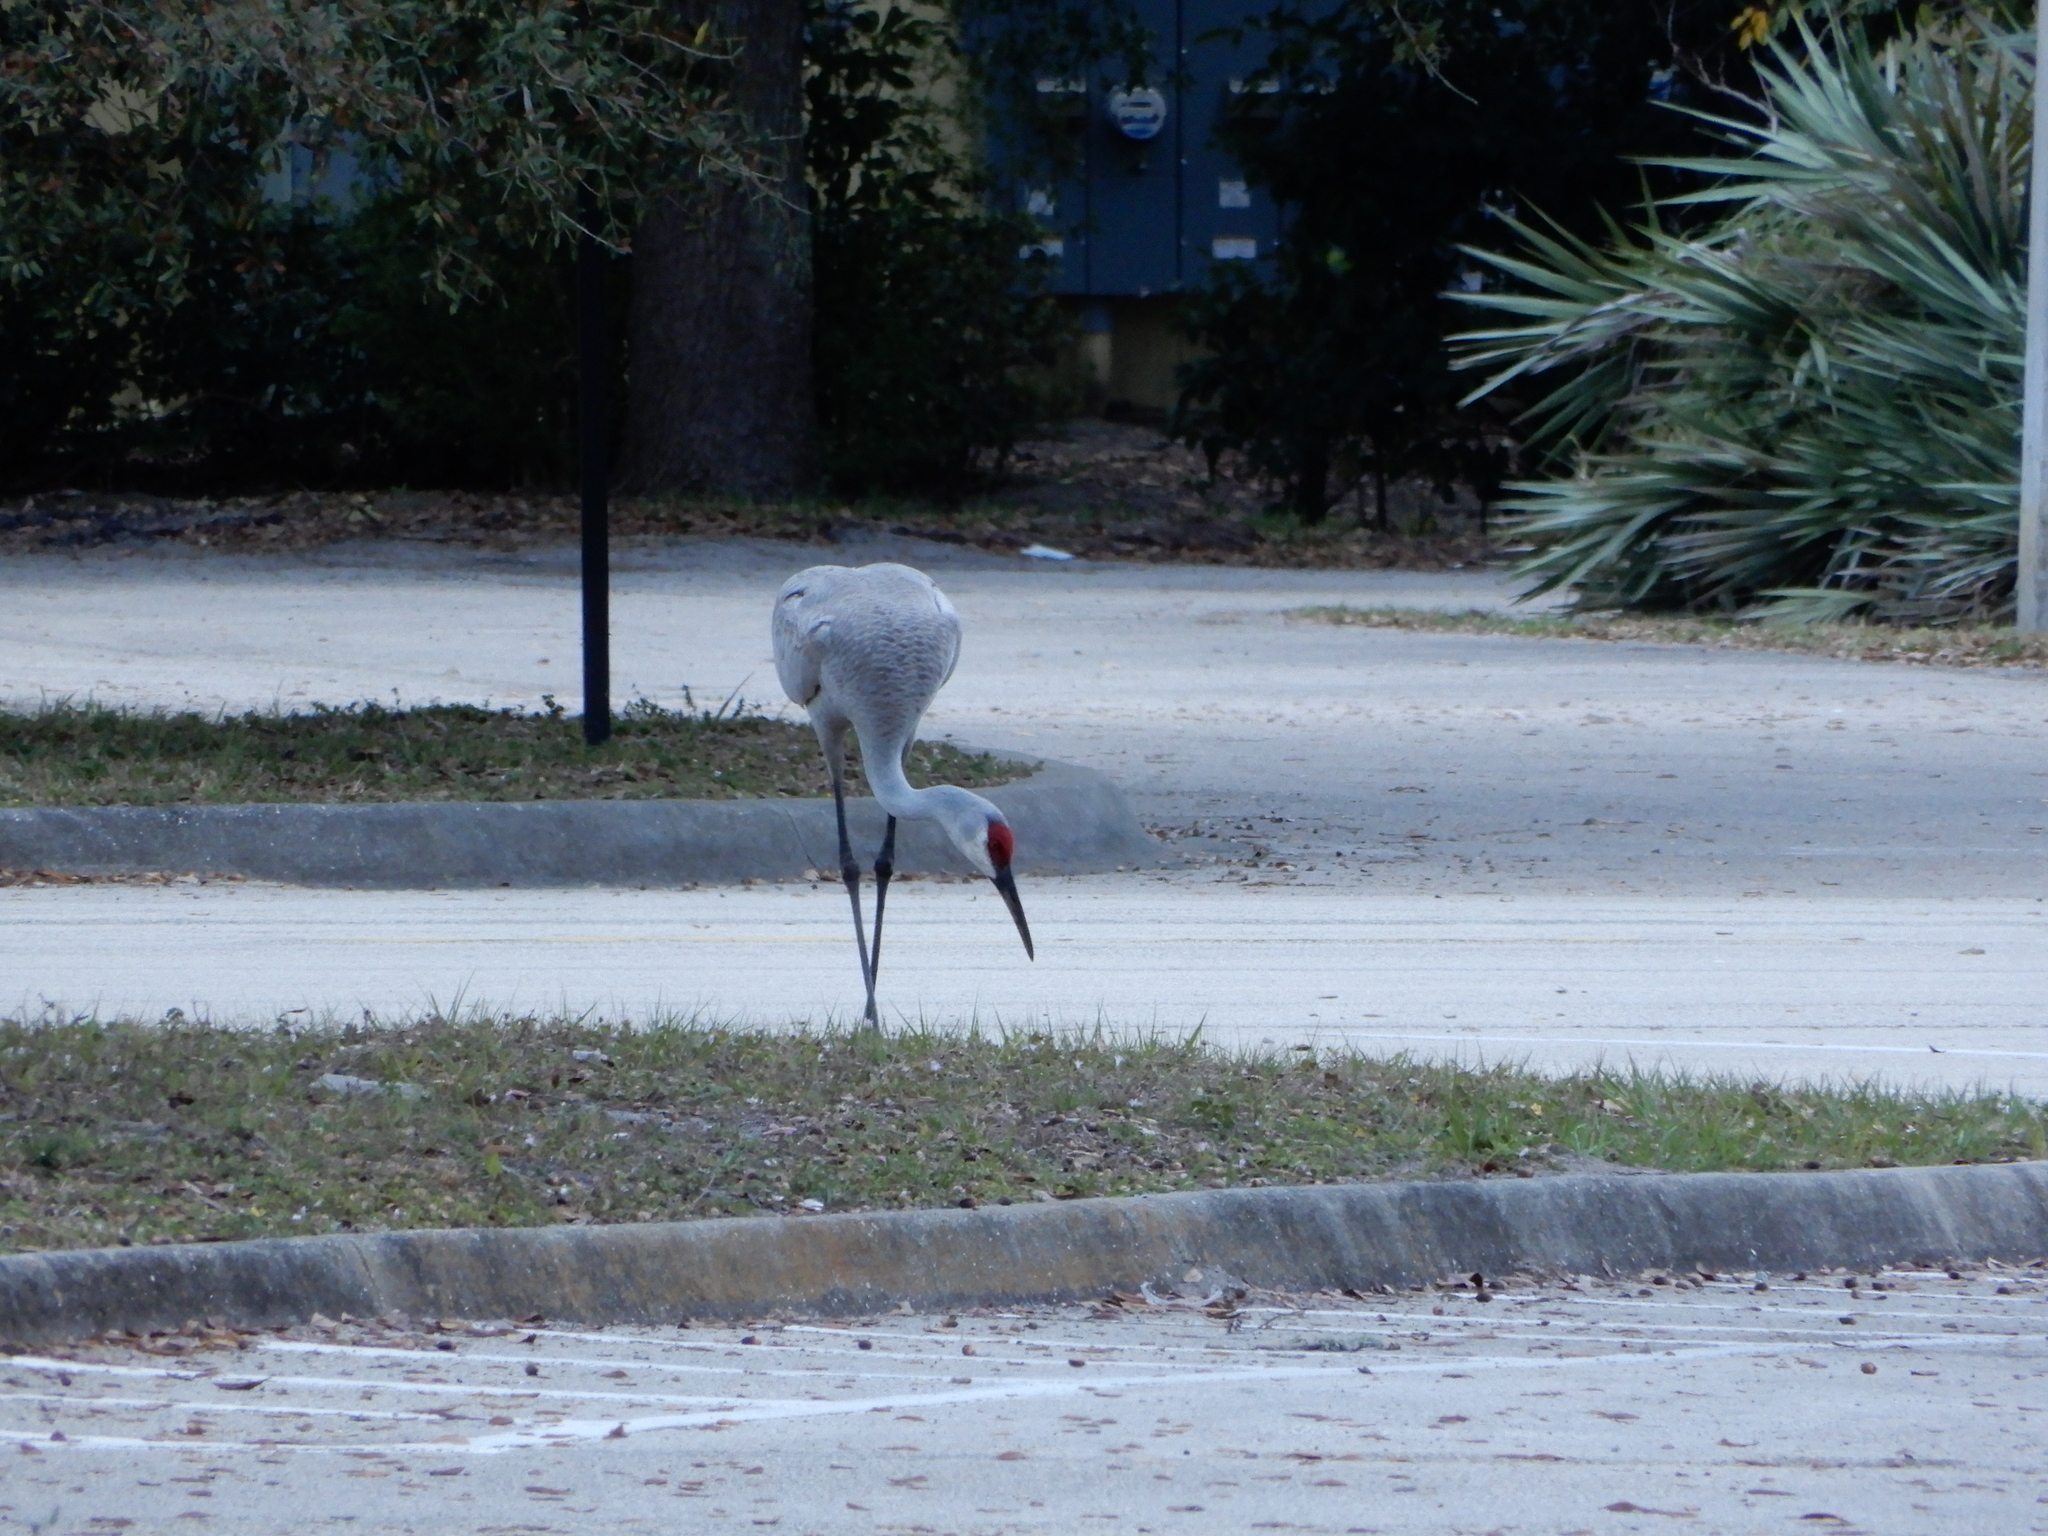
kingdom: Animalia
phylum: Chordata
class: Aves
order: Gruiformes
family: Gruidae
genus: Grus
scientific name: Grus canadensis
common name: Sandhill crane
